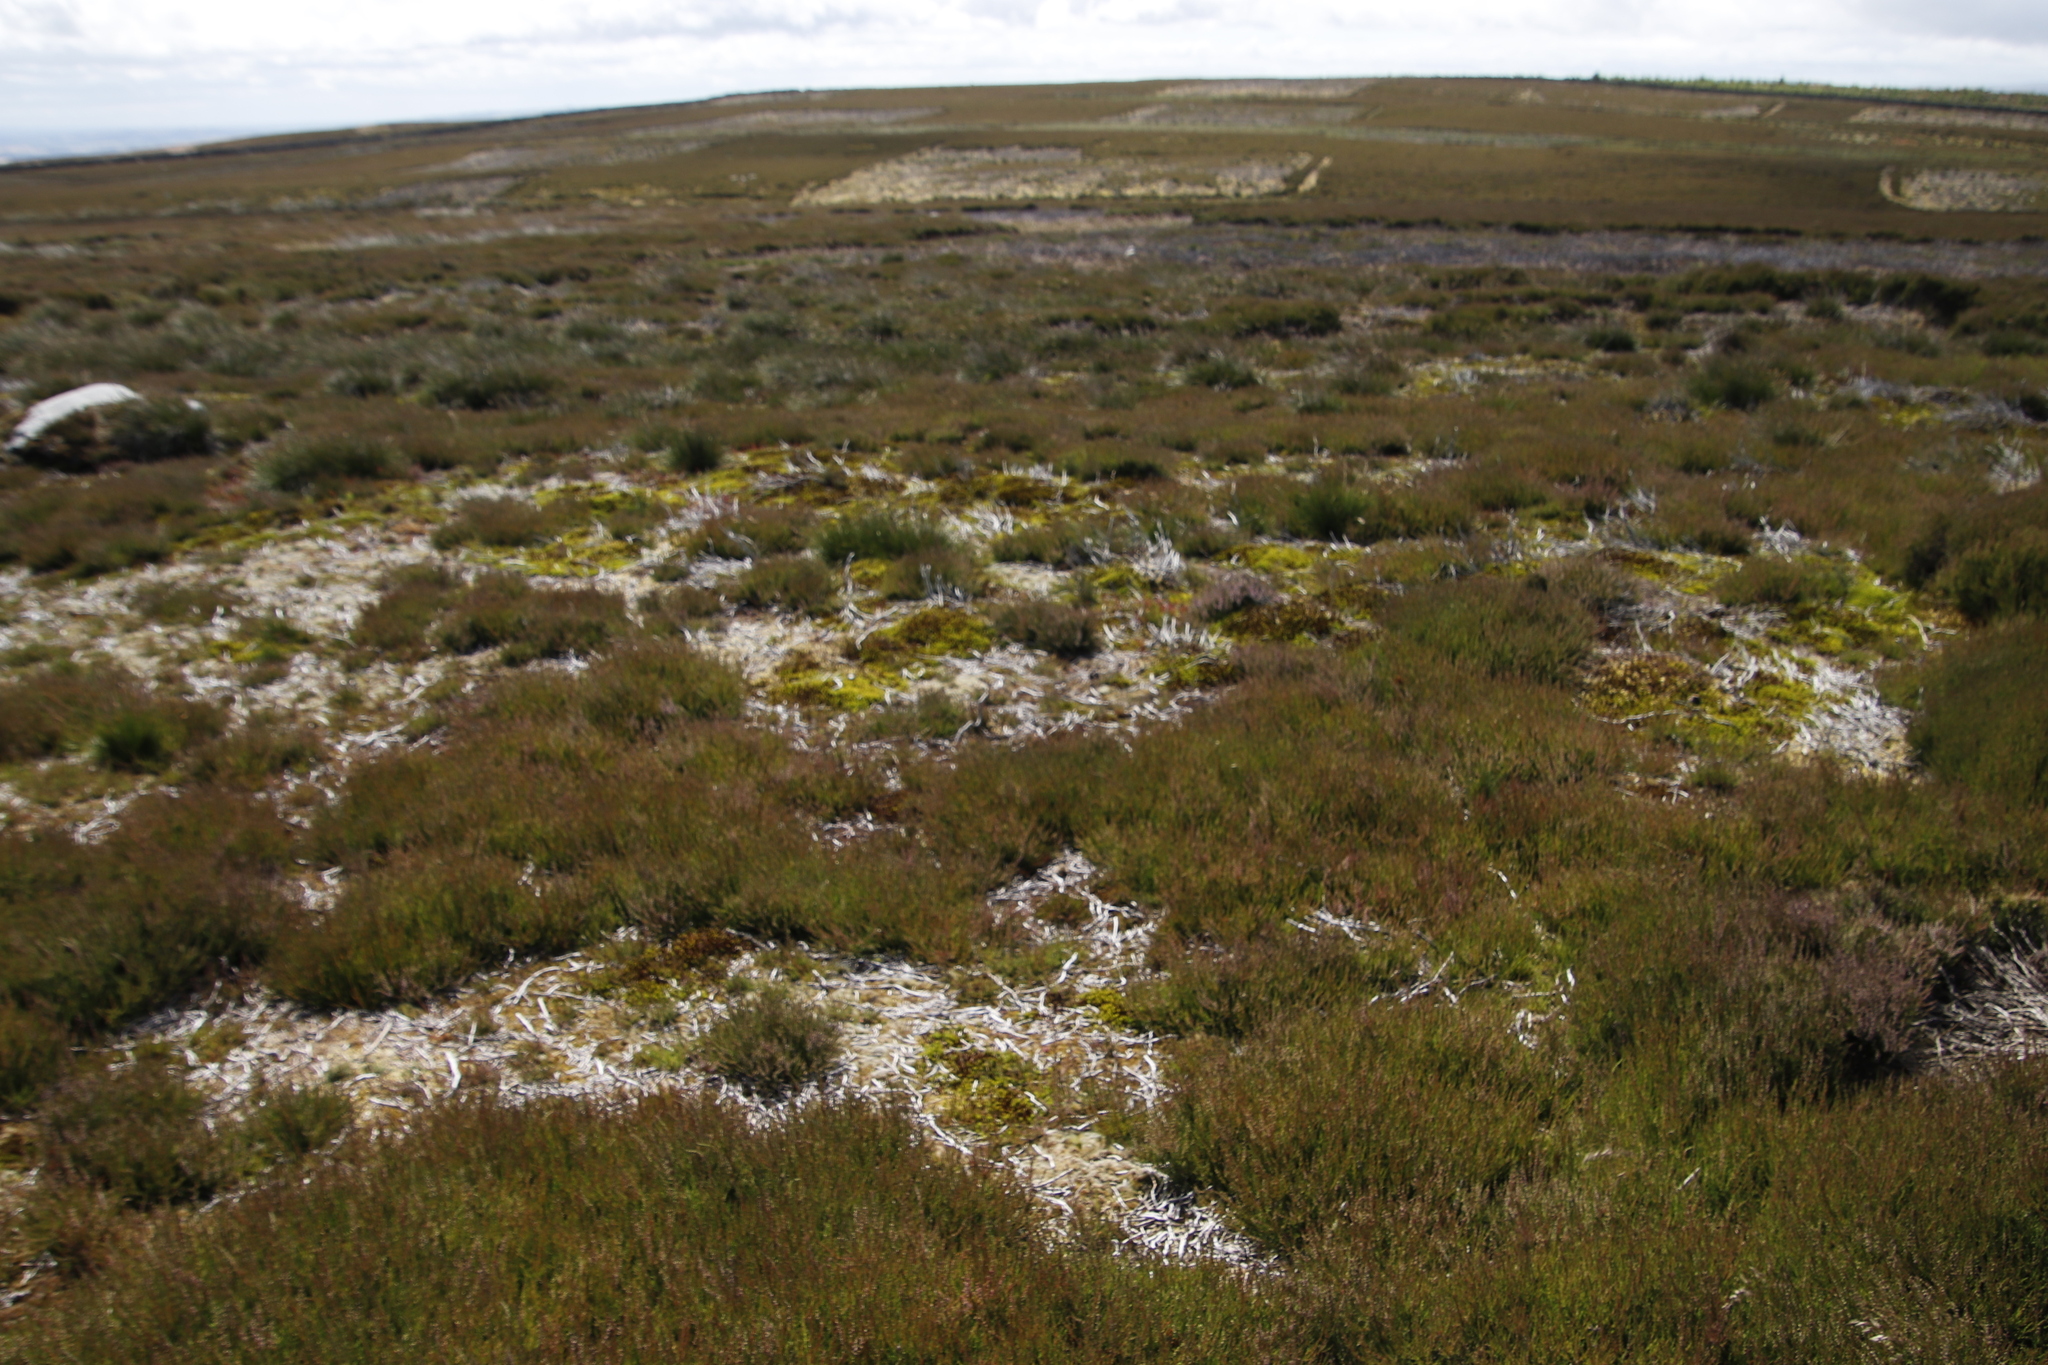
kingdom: Plantae
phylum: Tracheophyta
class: Magnoliopsida
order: Ericales
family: Ericaceae
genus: Calluna
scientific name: Calluna vulgaris
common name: Heather
